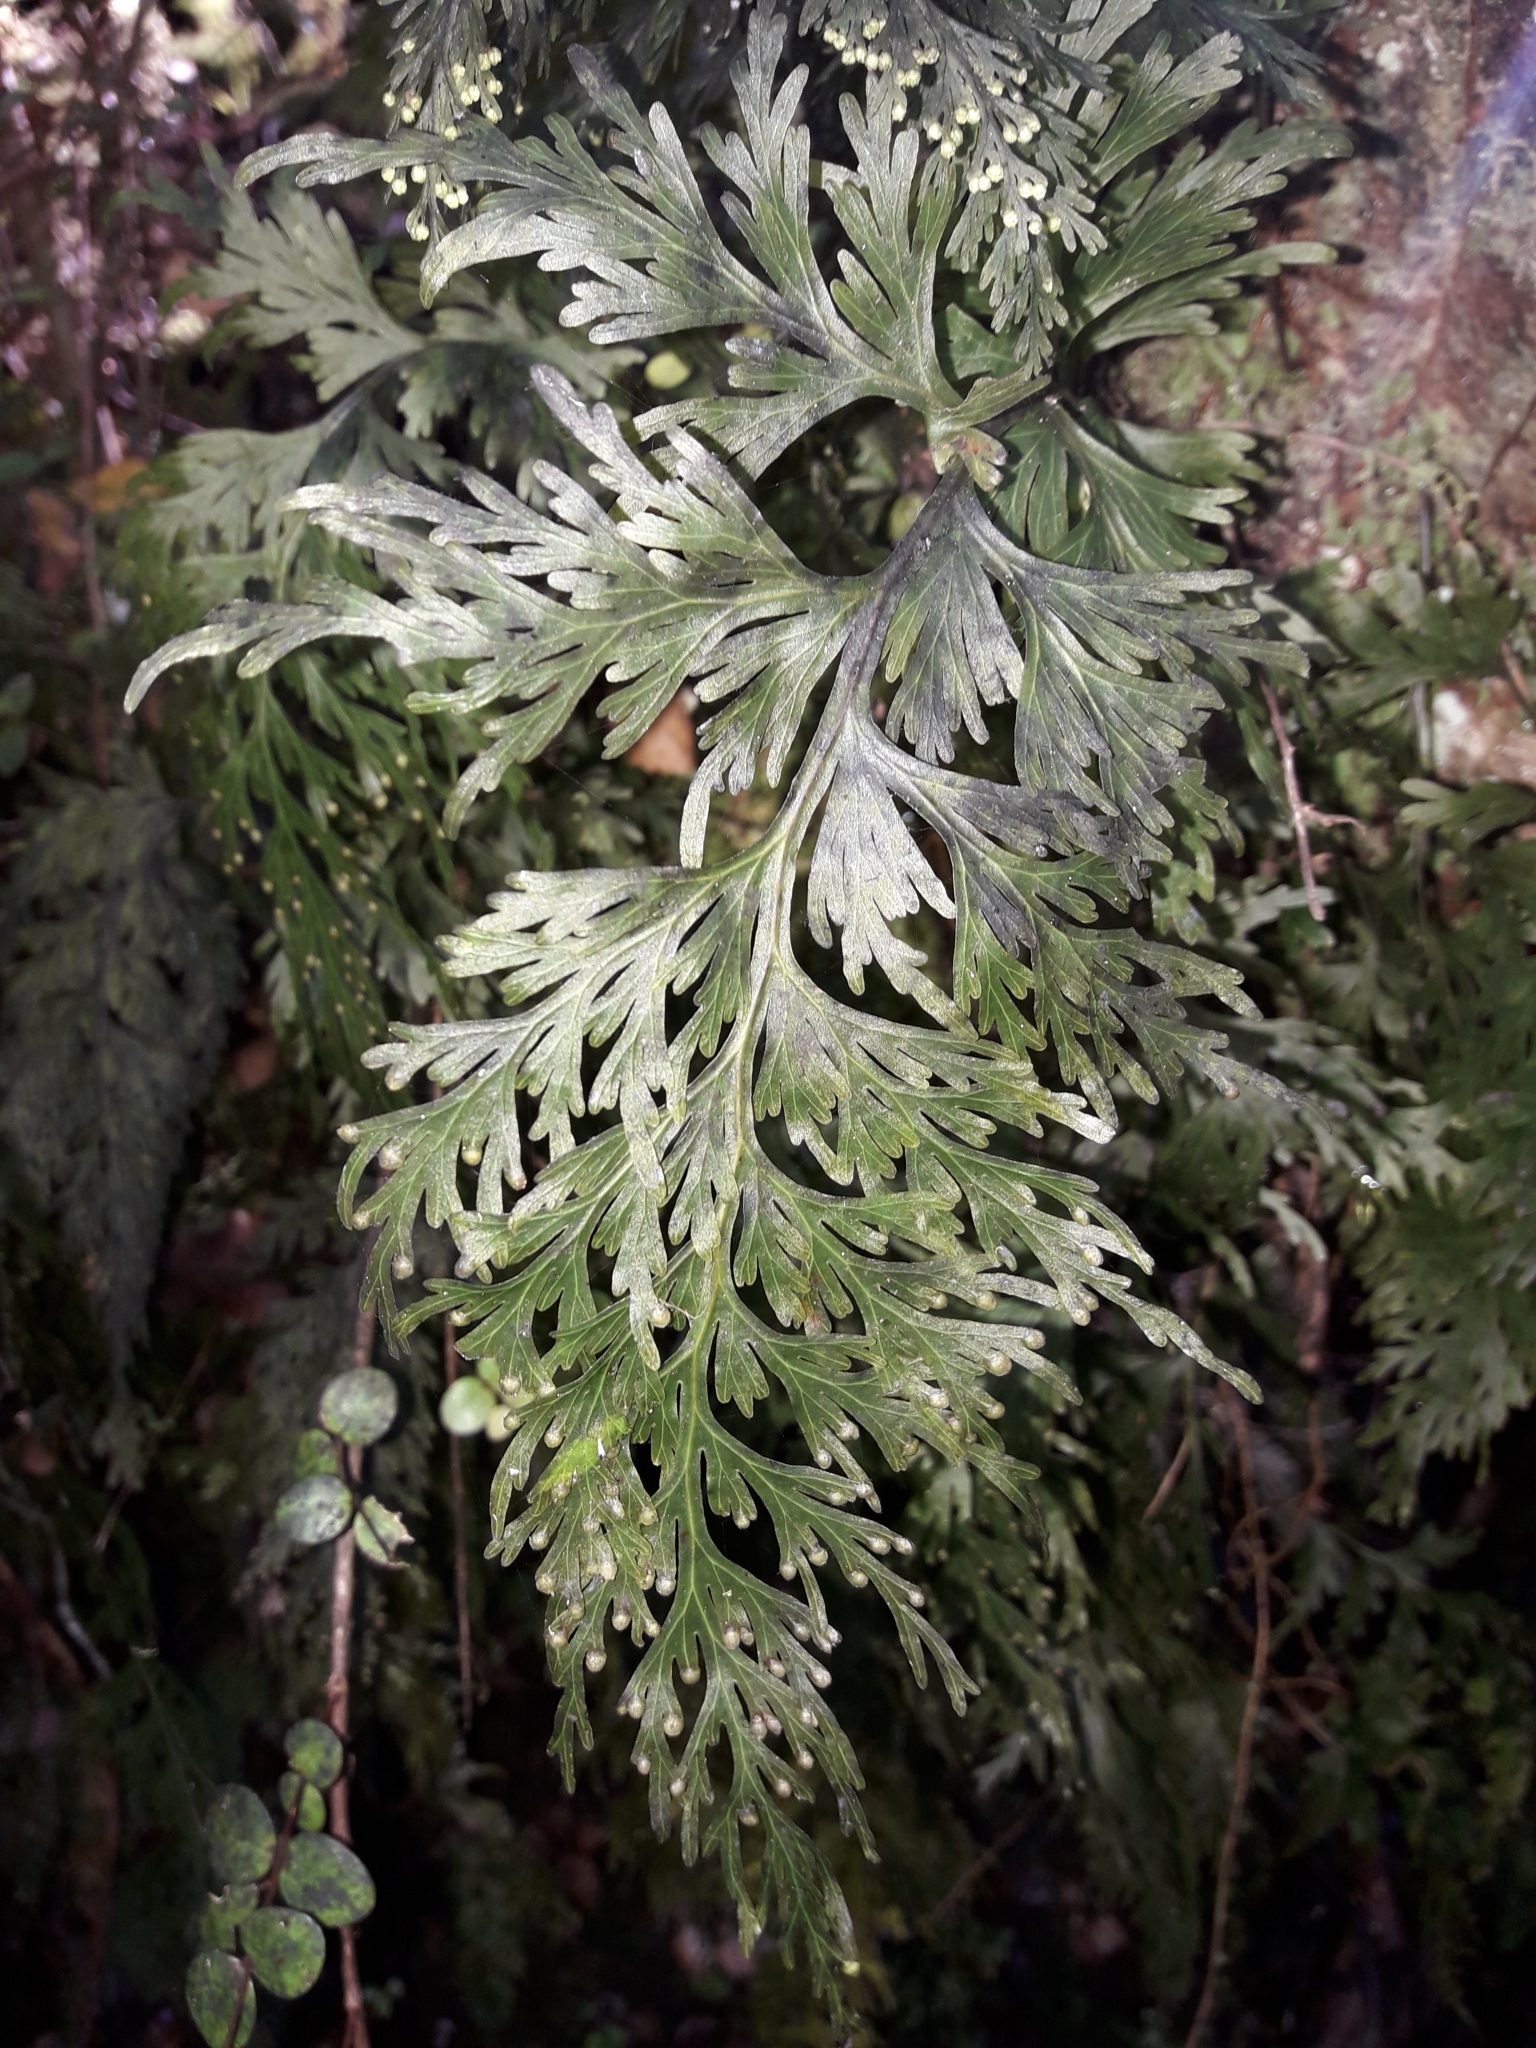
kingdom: Plantae
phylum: Tracheophyta
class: Polypodiopsida
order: Hymenophyllales
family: Hymenophyllaceae
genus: Hymenophyllum
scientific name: Hymenophyllum demissum
